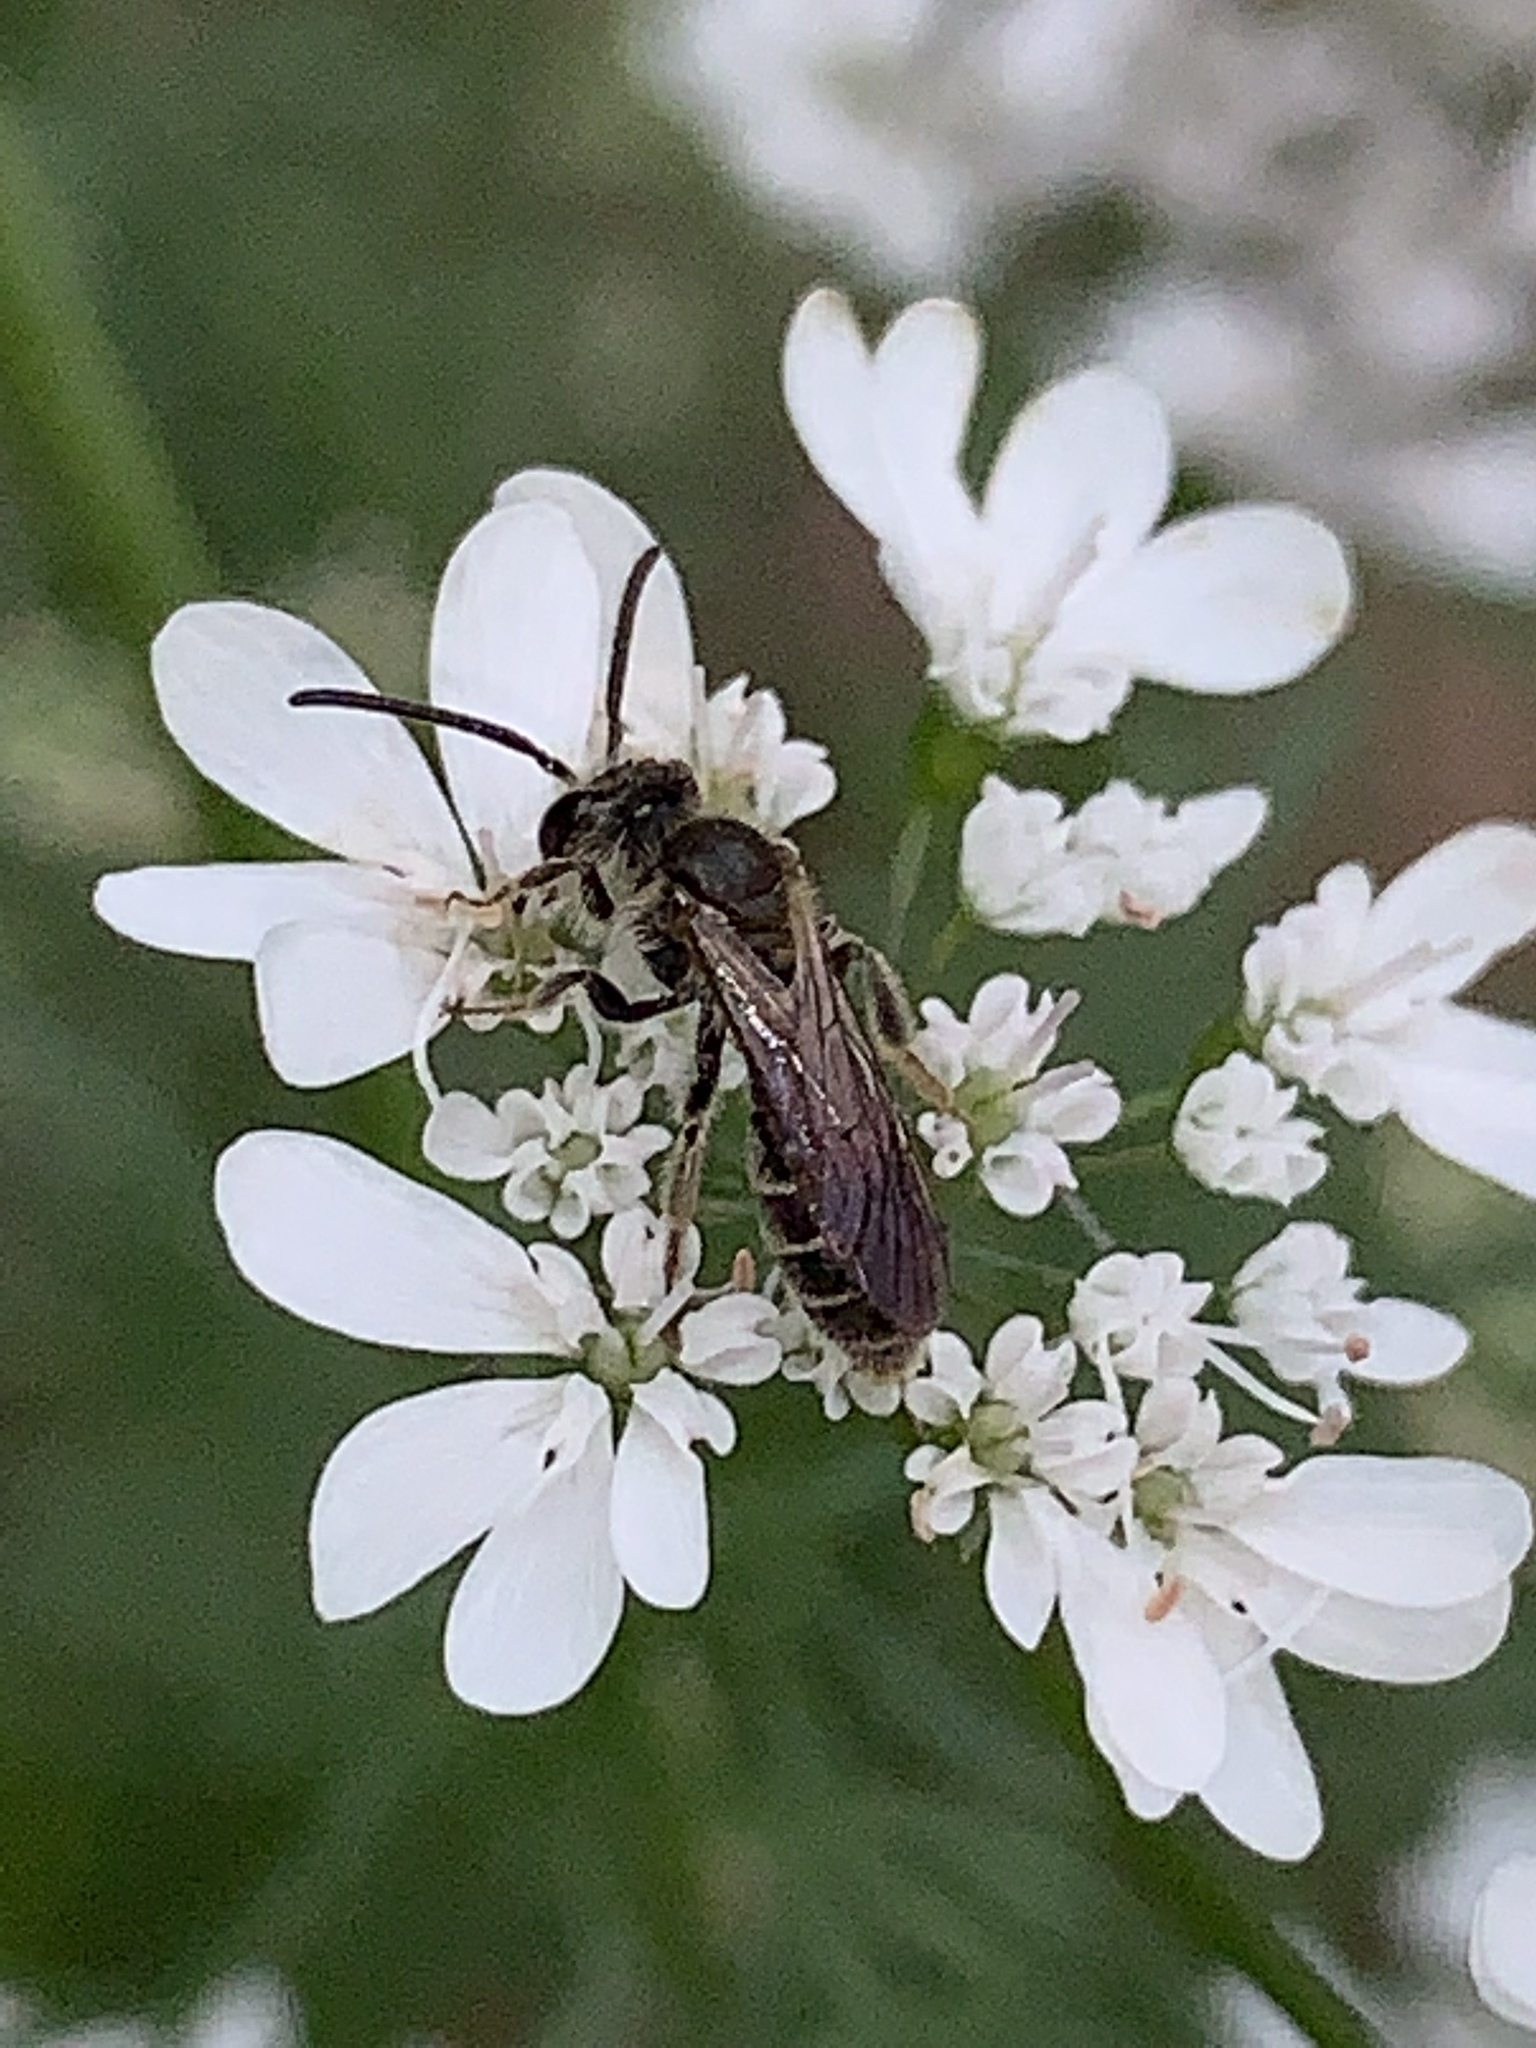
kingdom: Animalia
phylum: Arthropoda
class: Insecta
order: Hymenoptera
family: Andrenidae
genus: Andrena
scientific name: Andrena
